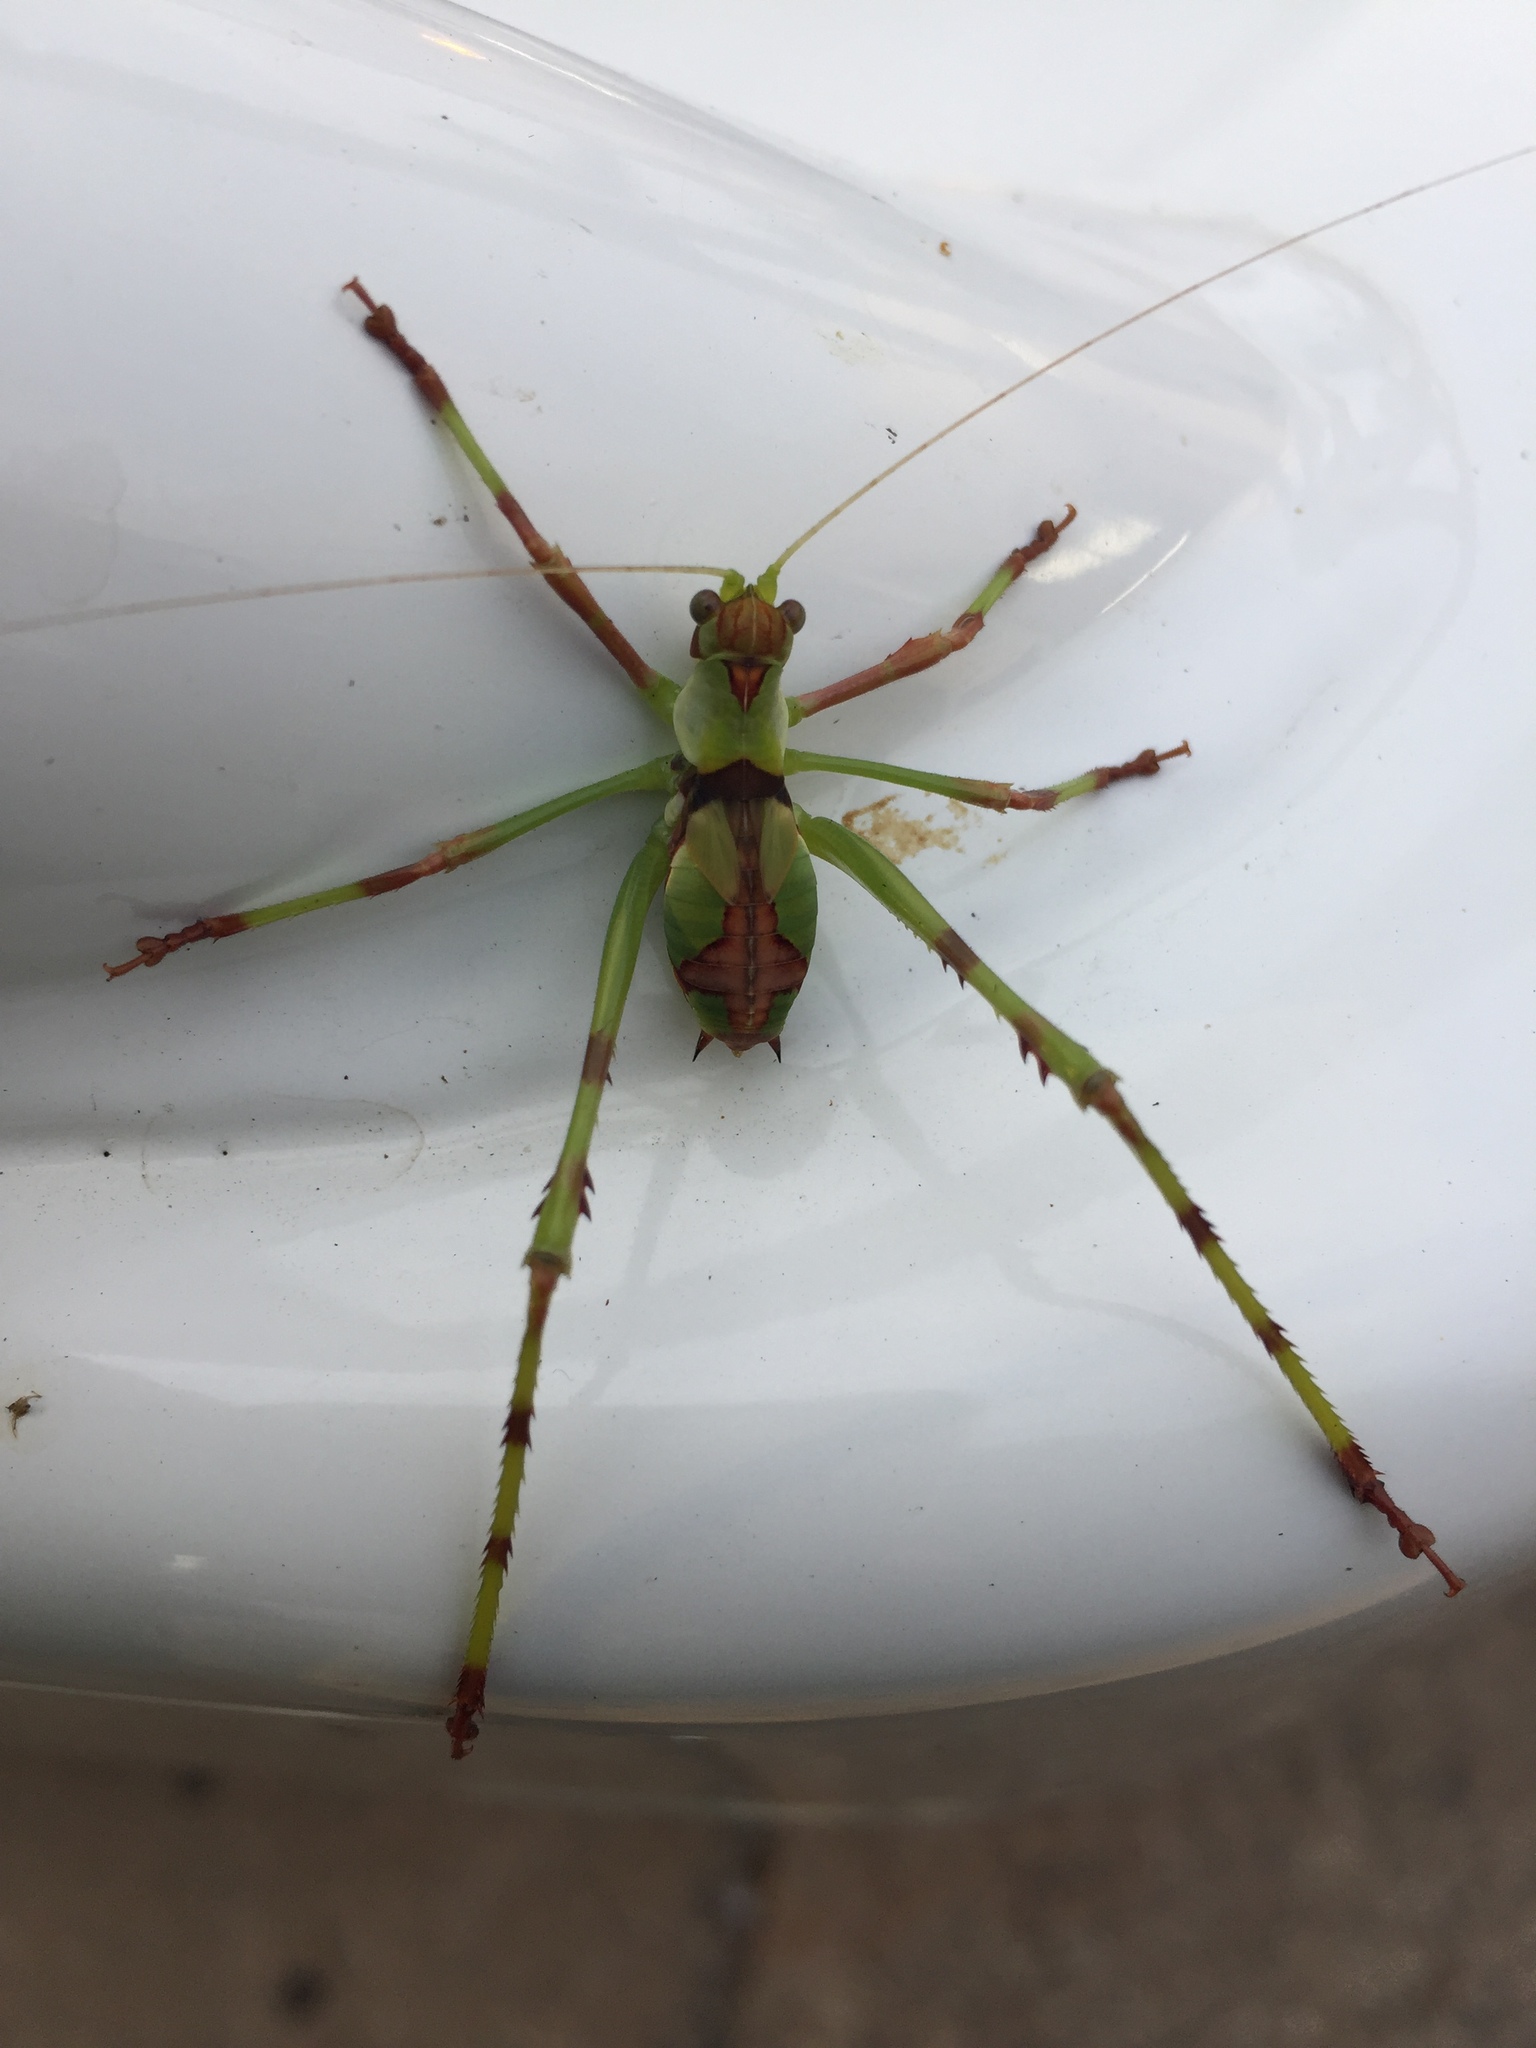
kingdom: Animalia
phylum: Arthropoda
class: Insecta
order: Orthoptera
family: Tettigoniidae
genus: Ephippitytha
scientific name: Ephippitytha trigintiduoguttata
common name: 32-spotted katydid
